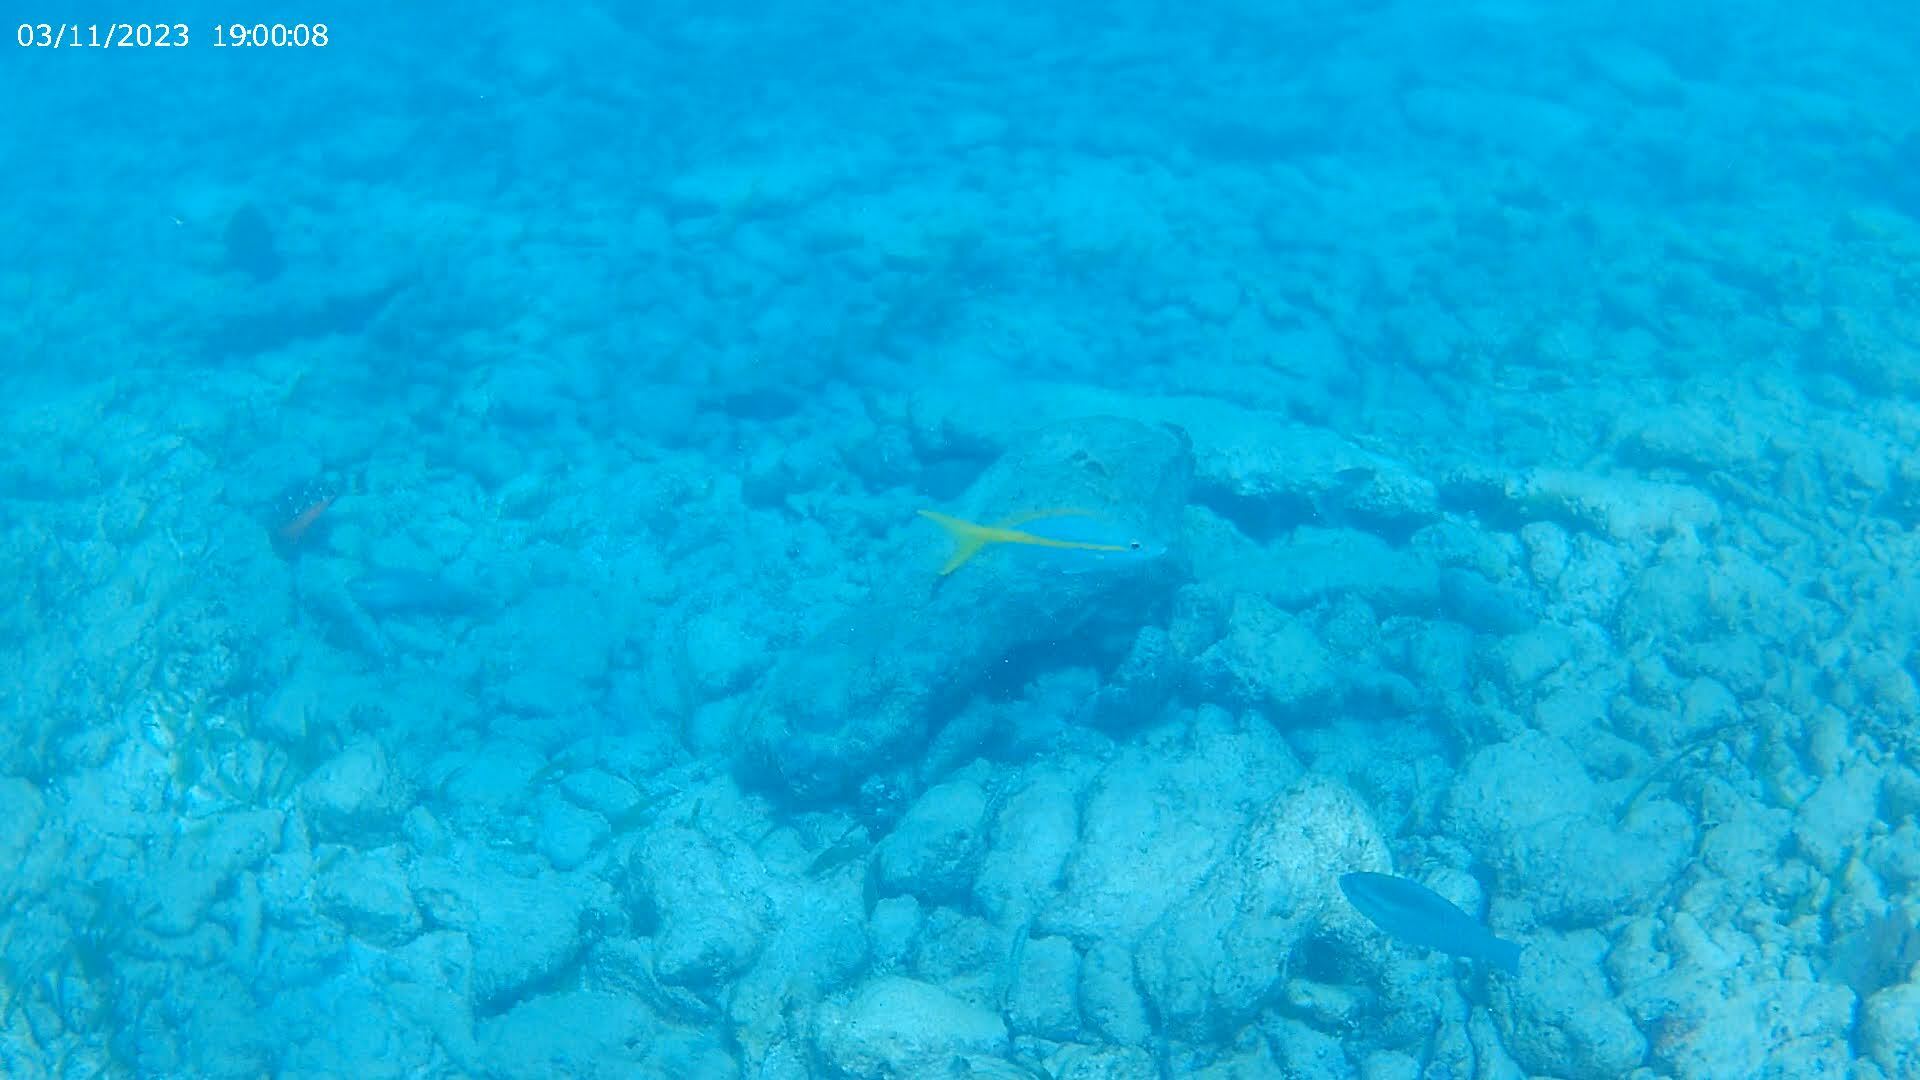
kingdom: Animalia
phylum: Chordata
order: Perciformes
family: Lutjanidae
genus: Ocyurus
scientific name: Ocyurus chrysurus
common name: Yellowtail snapper
